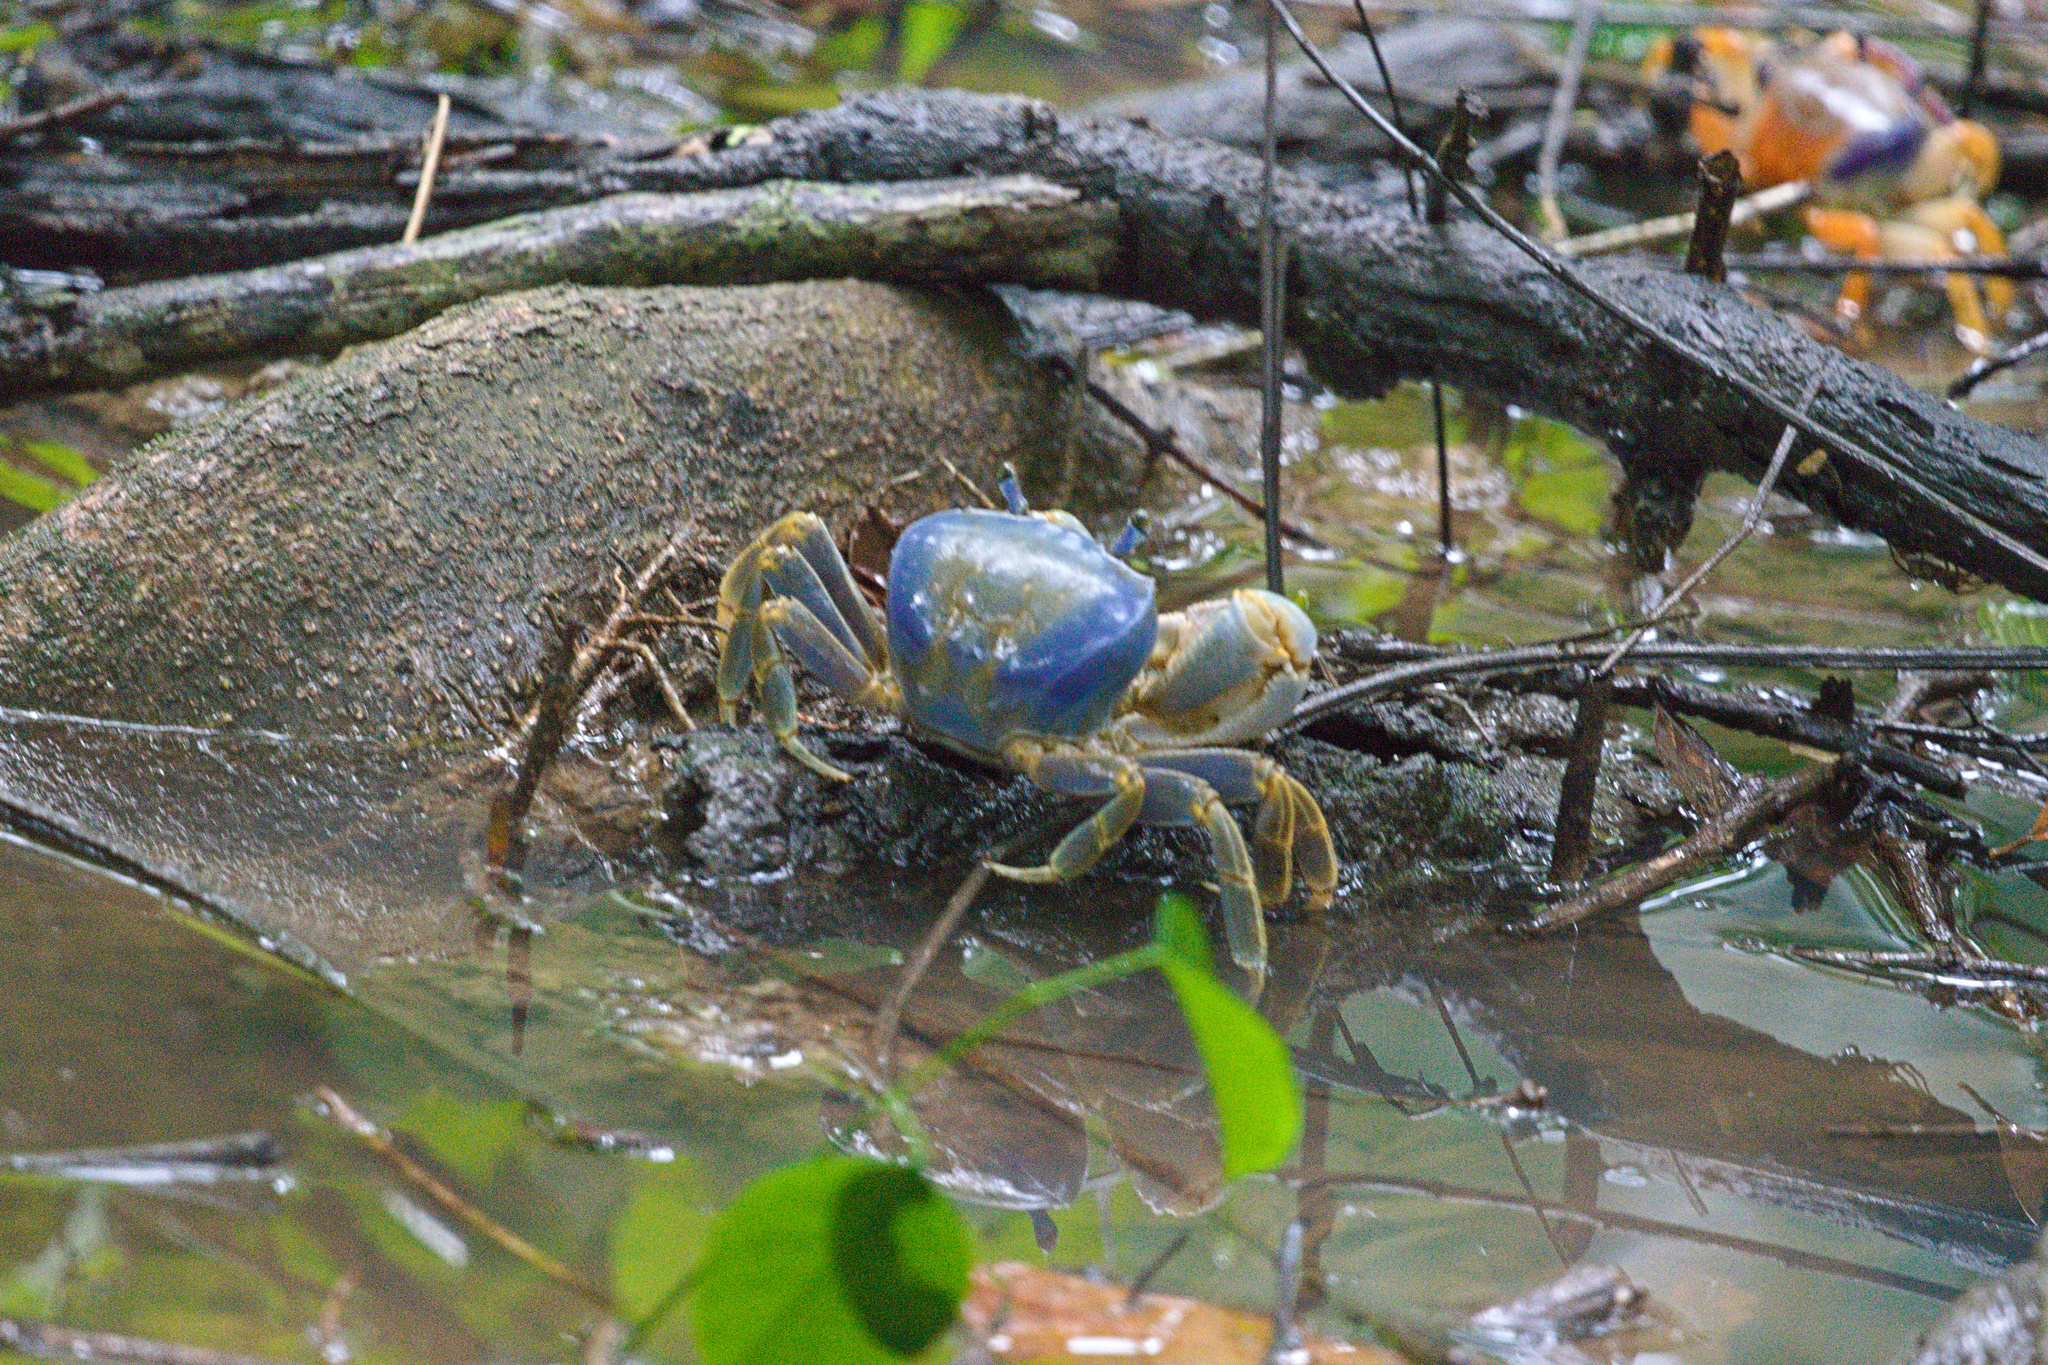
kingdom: Animalia
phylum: Arthropoda
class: Malacostraca
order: Decapoda
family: Gecarcinidae
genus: Cardisoma
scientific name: Cardisoma guanhumi
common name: Great land crab
